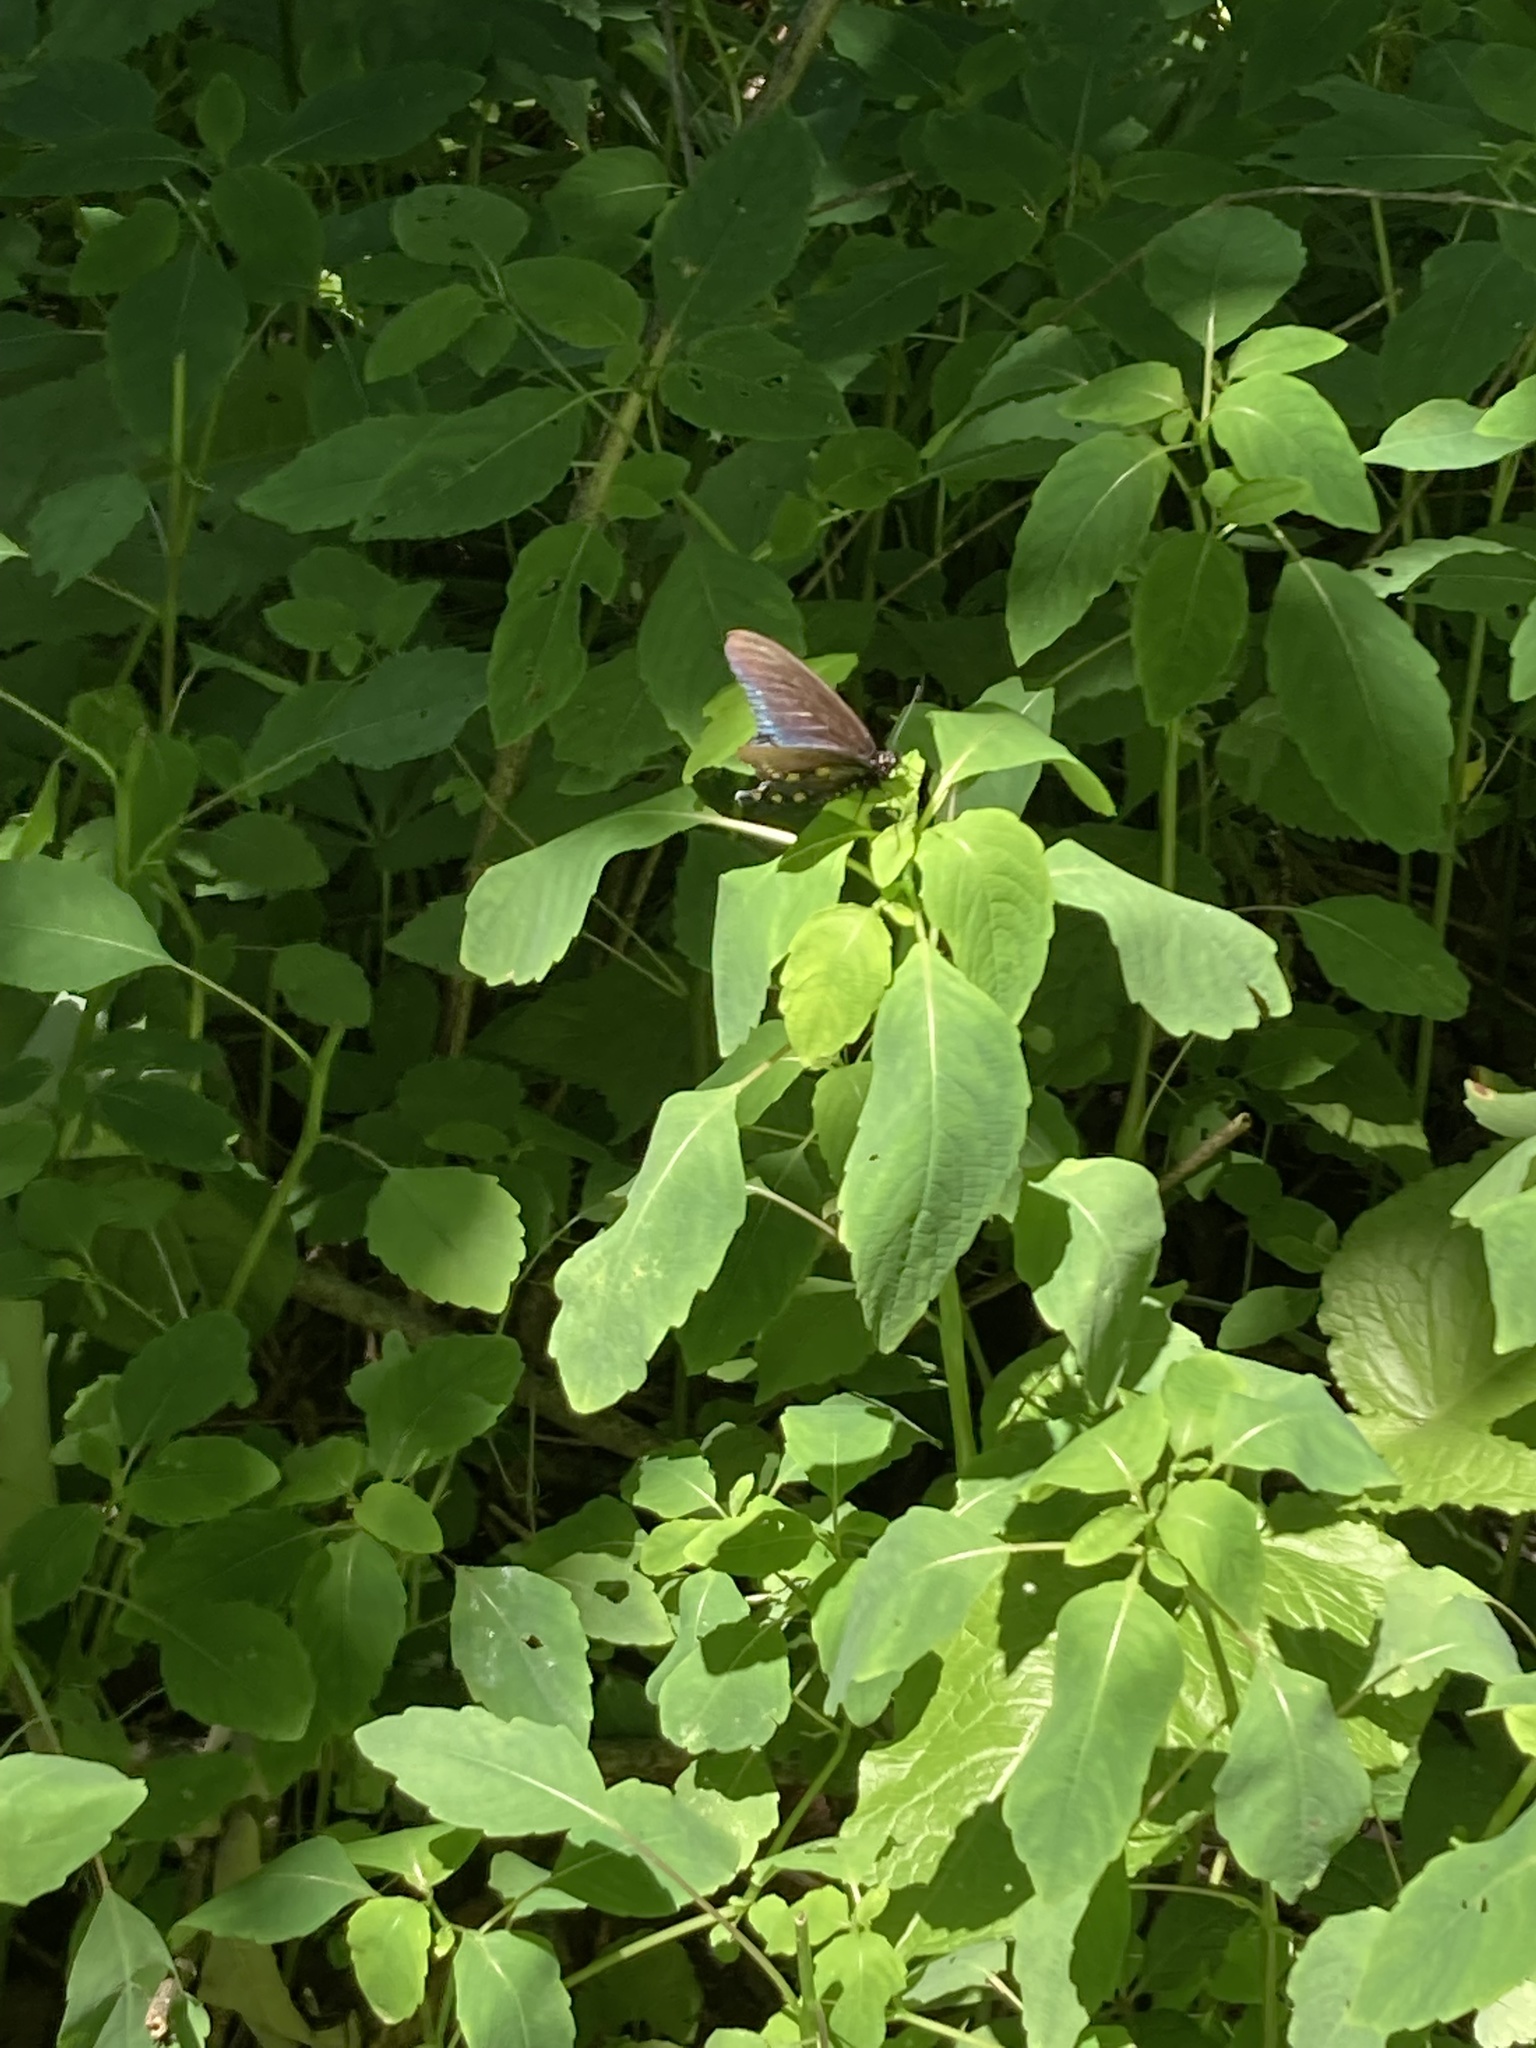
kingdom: Animalia
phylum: Arthropoda
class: Insecta
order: Lepidoptera
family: Papilionidae
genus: Battus
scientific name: Battus philenor
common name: Pipevine swallowtail
